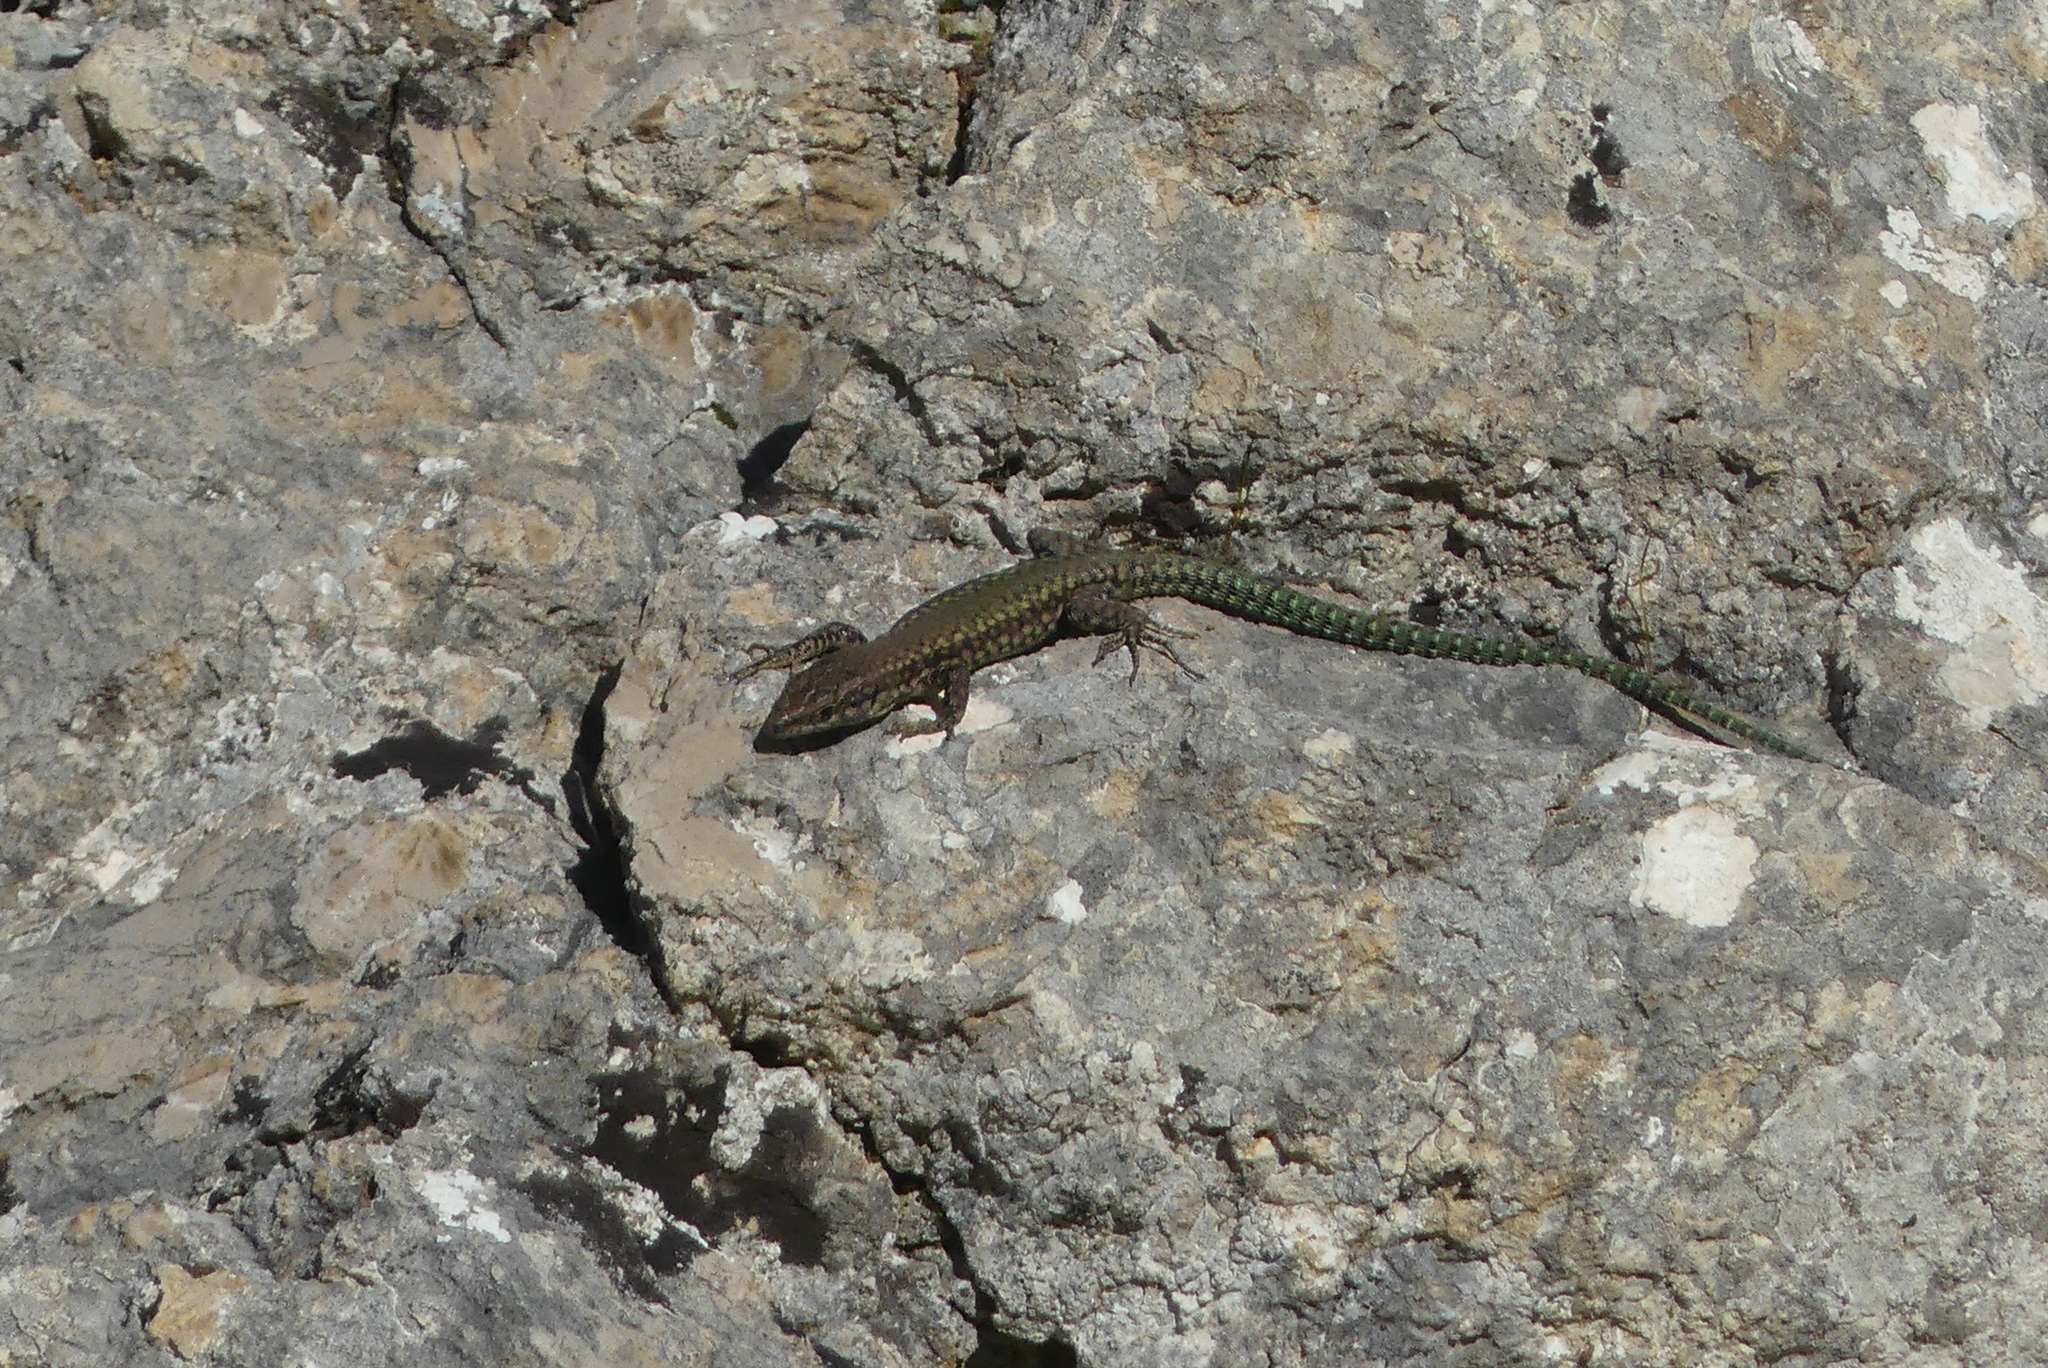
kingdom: Animalia
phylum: Chordata
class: Squamata
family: Lacertidae
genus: Podarcis
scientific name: Podarcis vaucheri
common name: Vaucher's wall lizard
